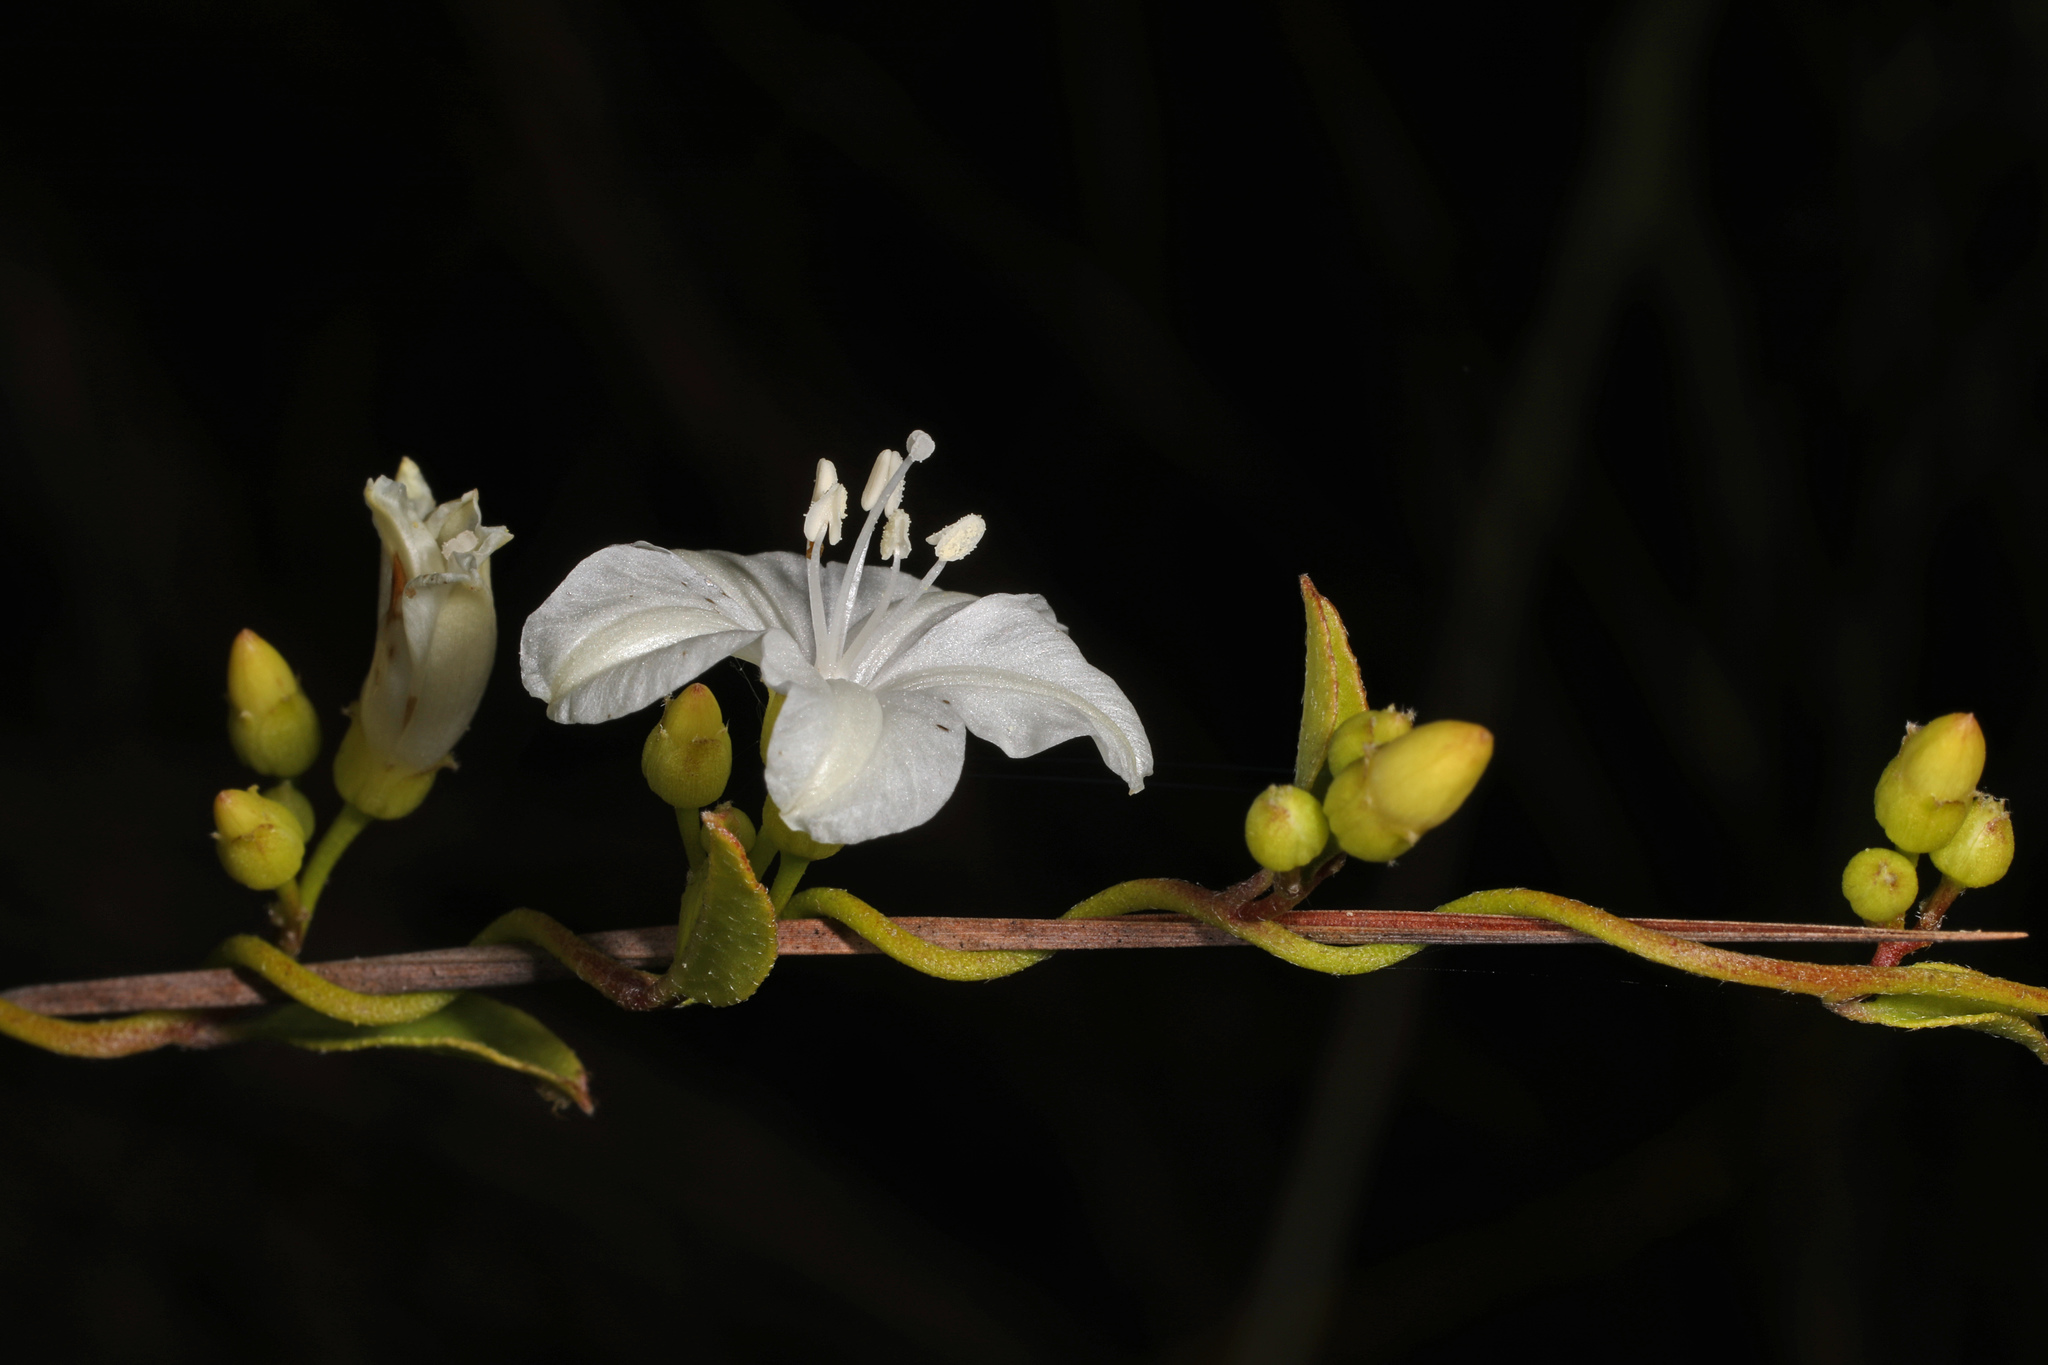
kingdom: Plantae
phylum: Tracheophyta
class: Magnoliopsida
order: Solanales
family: Convolvulaceae
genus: Jacquemontia
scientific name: Jacquemontia curtissii
